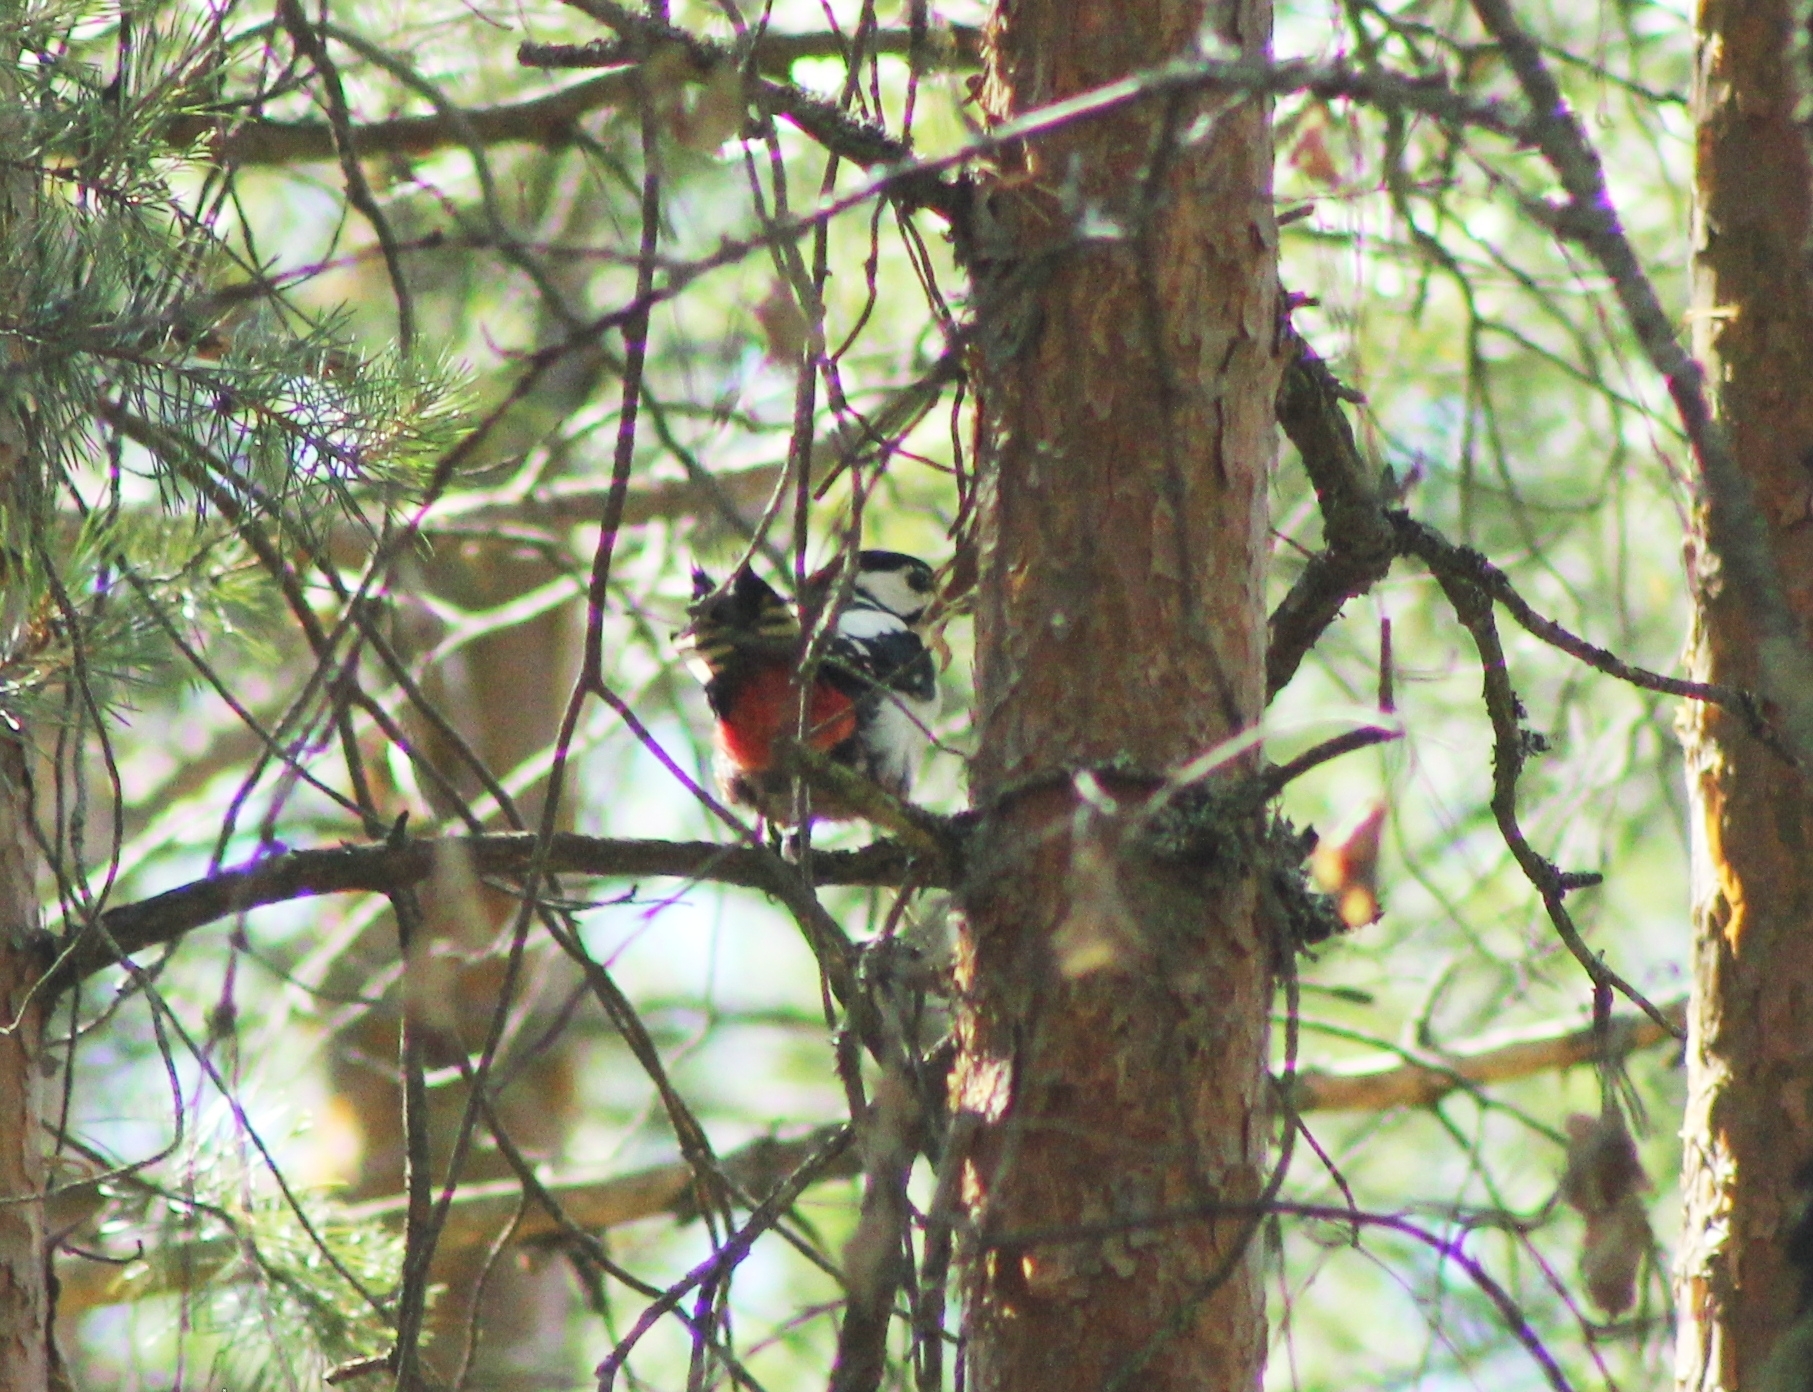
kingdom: Animalia
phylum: Chordata
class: Aves
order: Piciformes
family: Picidae
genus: Dendrocopos
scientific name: Dendrocopos major
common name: Great spotted woodpecker
